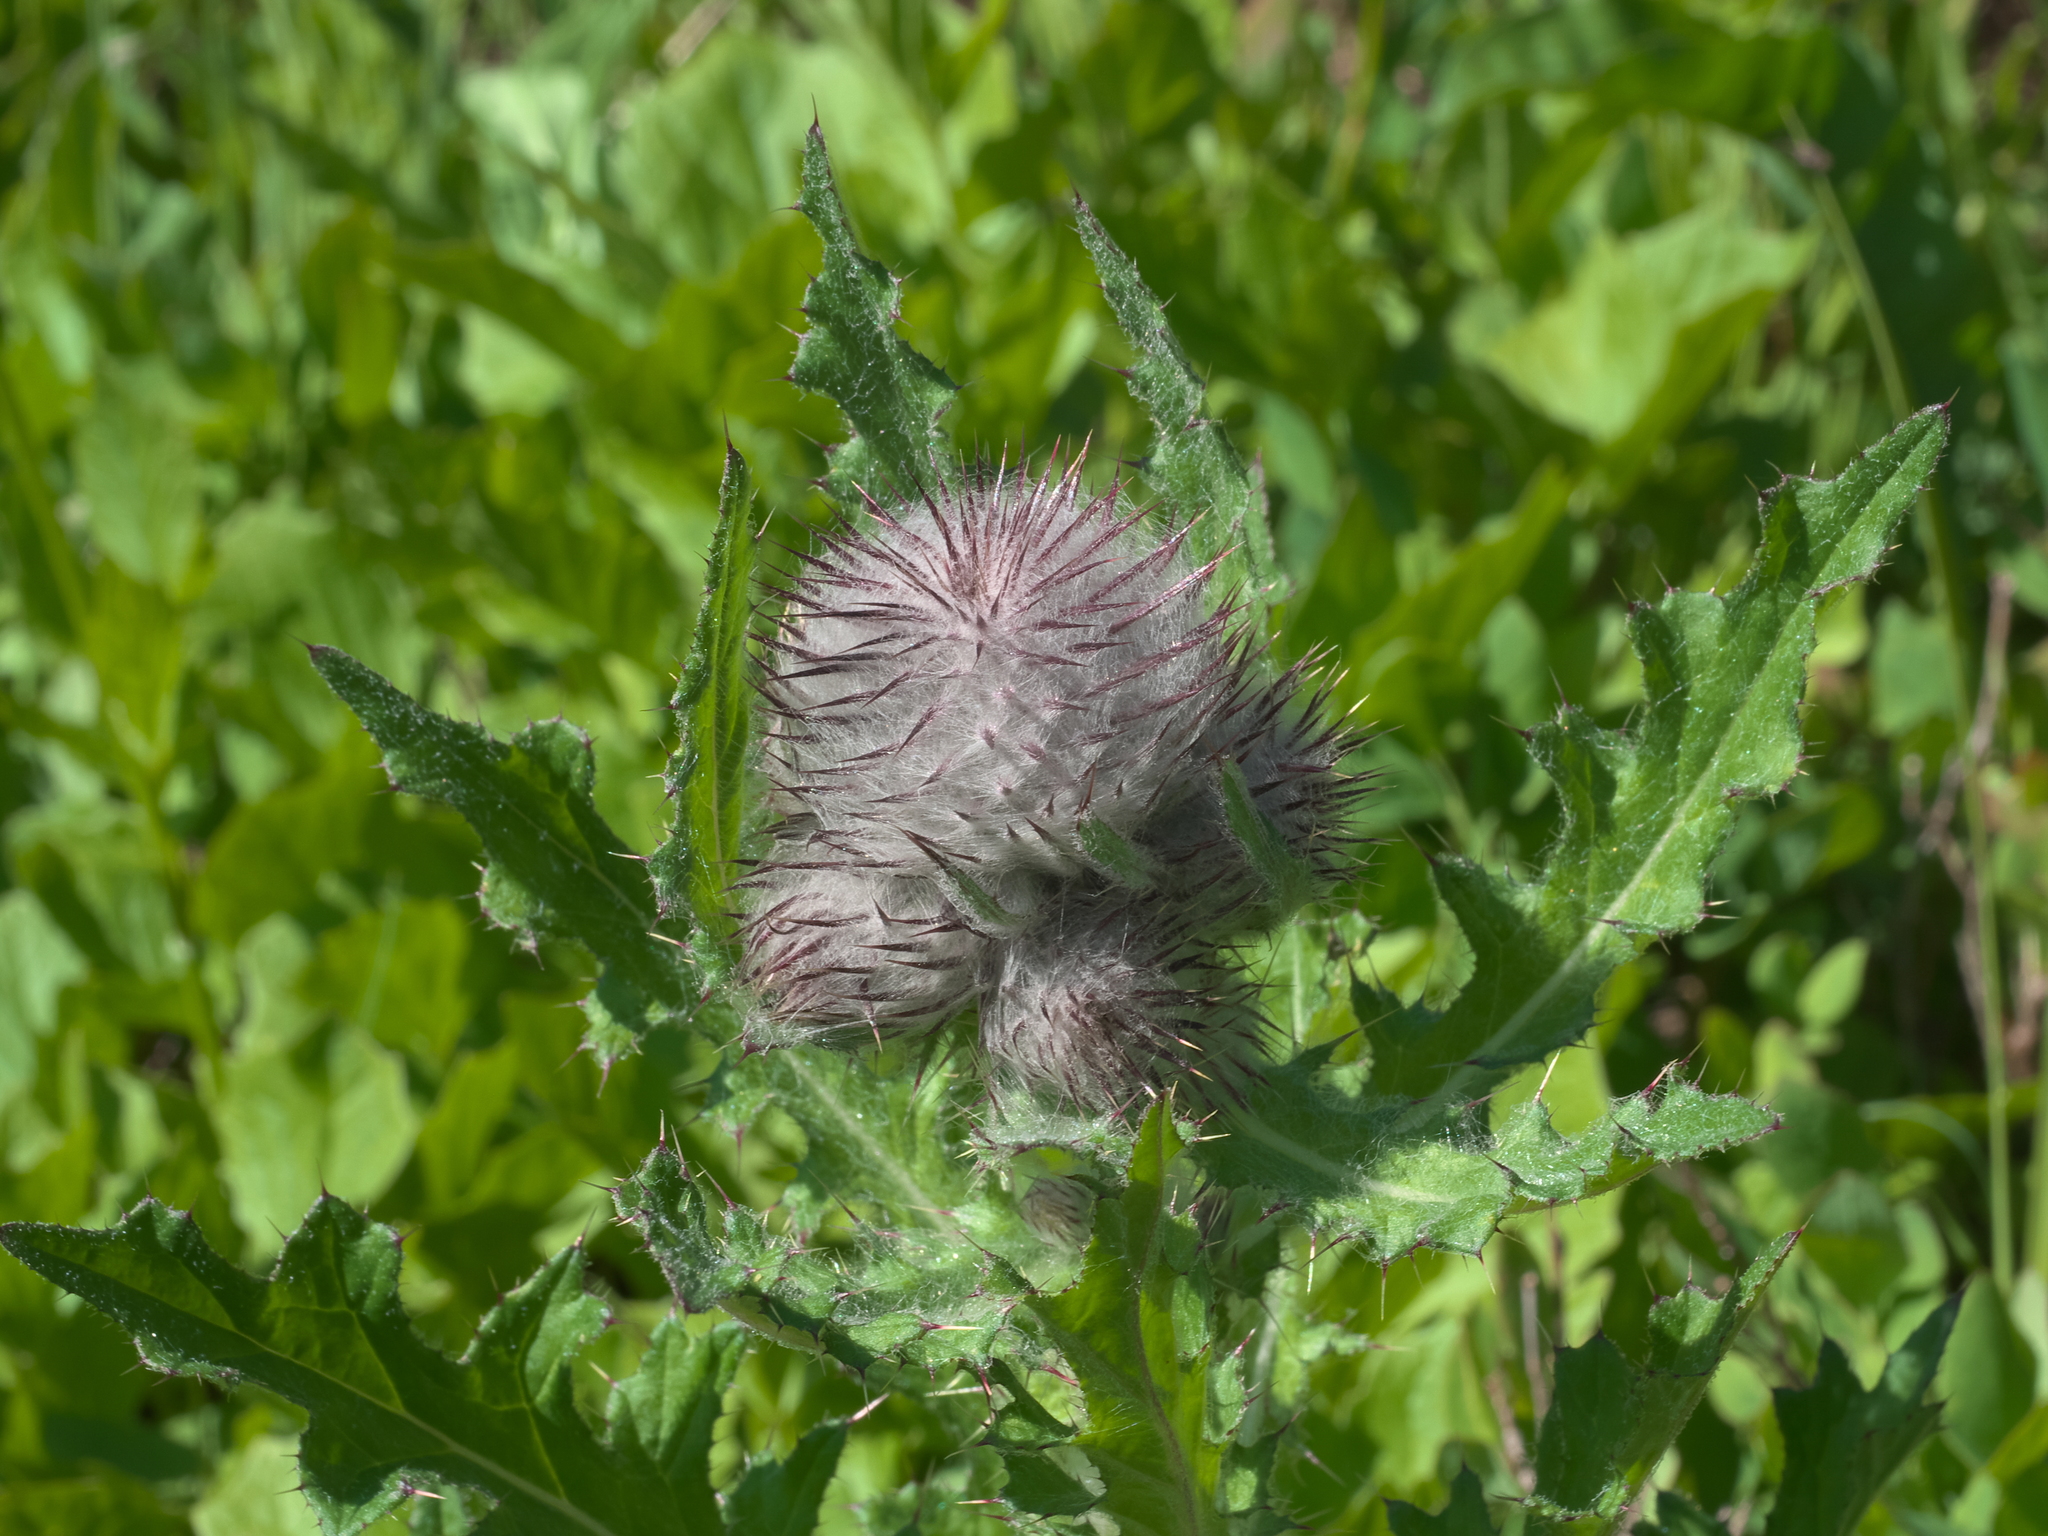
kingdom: Plantae
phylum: Tracheophyta
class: Magnoliopsida
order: Asterales
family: Asteraceae
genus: Cirsium
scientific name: Cirsium edule
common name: Indian thistle
